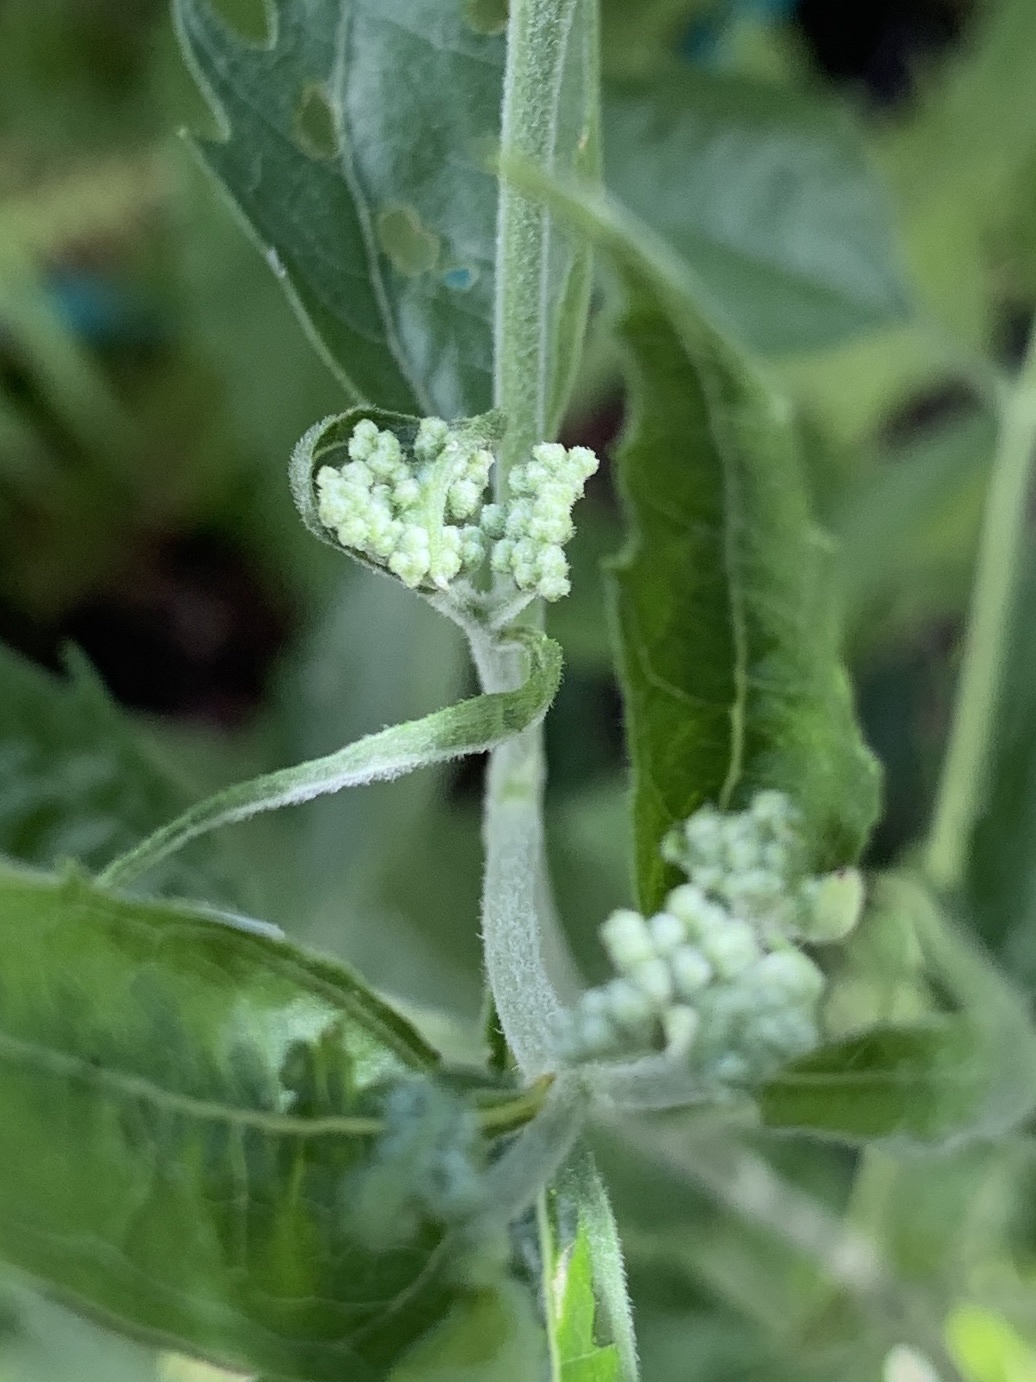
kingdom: Plantae
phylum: Tracheophyta
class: Magnoliopsida
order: Asterales
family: Asteraceae
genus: Eupatorium
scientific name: Eupatorium serotinum
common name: Late boneset
